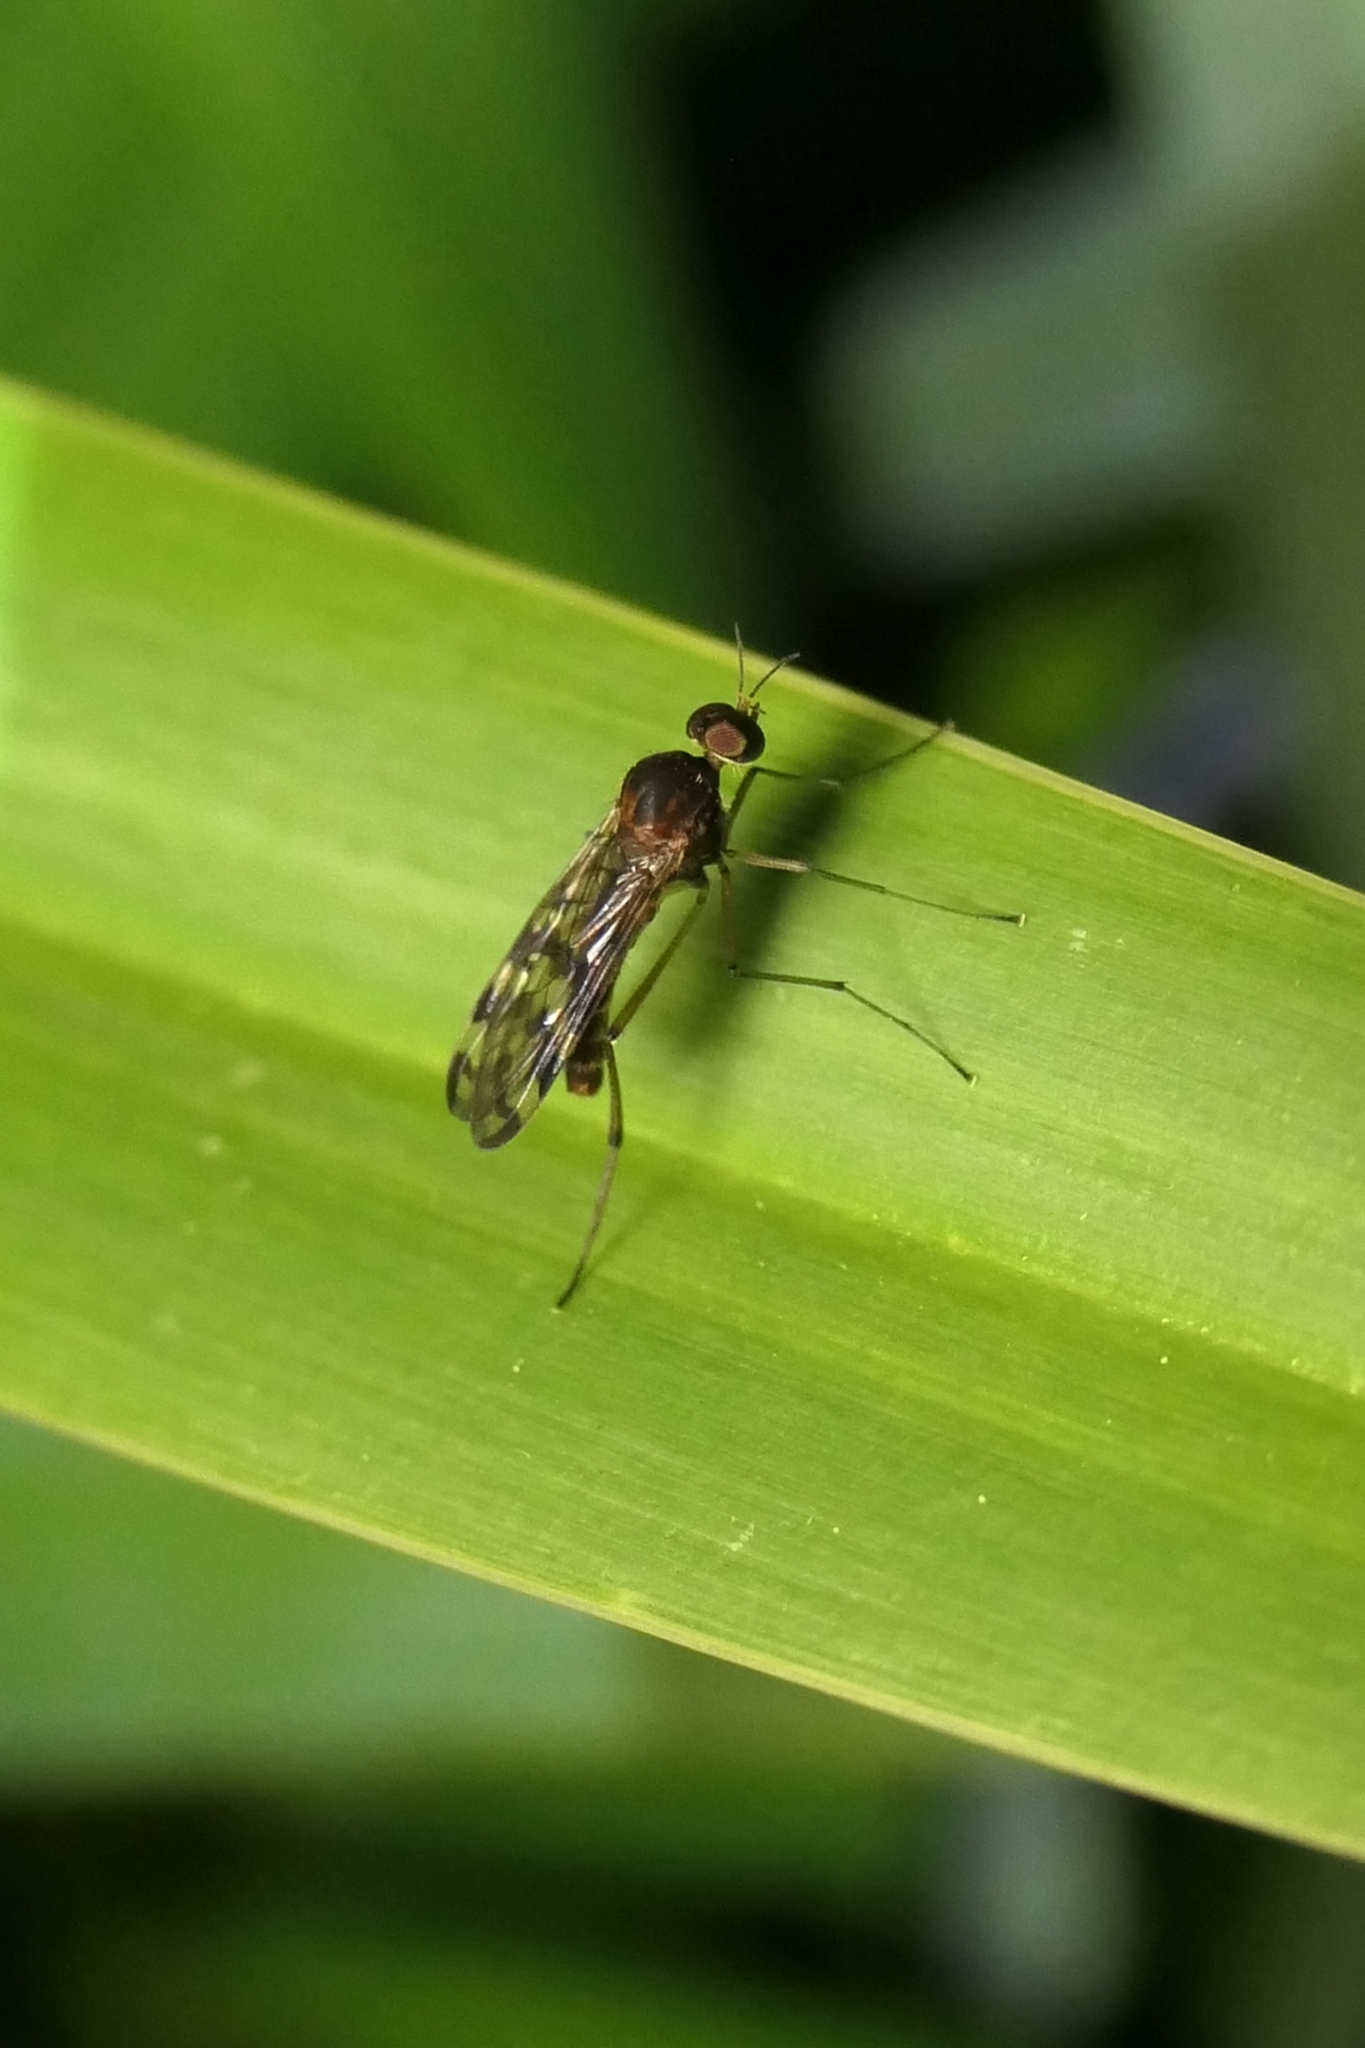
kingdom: Animalia
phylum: Arthropoda
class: Insecta
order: Diptera
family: Anisopodidae
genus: Sylvicola
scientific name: Sylvicola dubius
